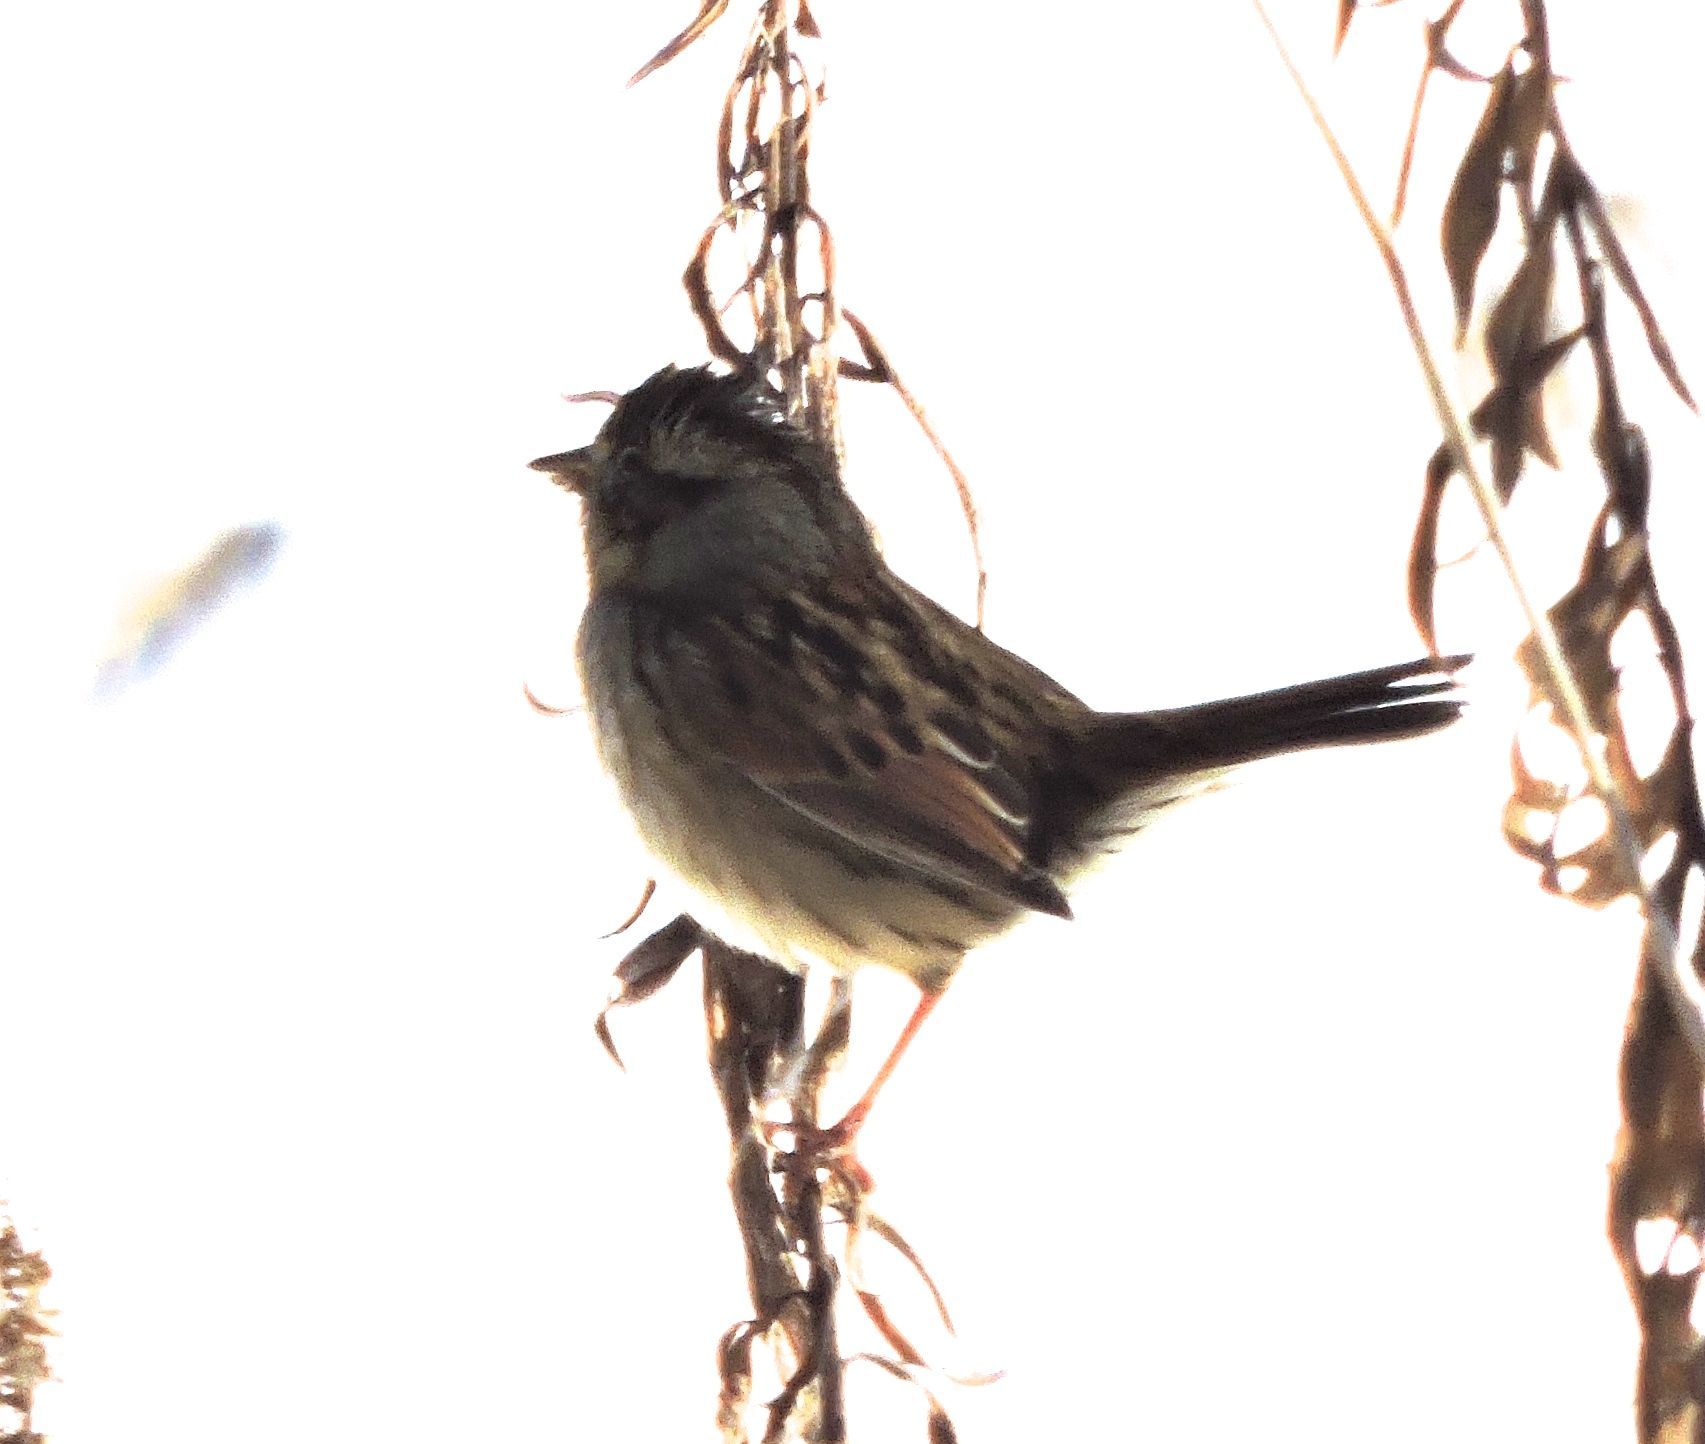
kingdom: Animalia
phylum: Chordata
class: Aves
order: Passeriformes
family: Passerellidae
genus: Melospiza
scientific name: Melospiza georgiana
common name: Swamp sparrow
